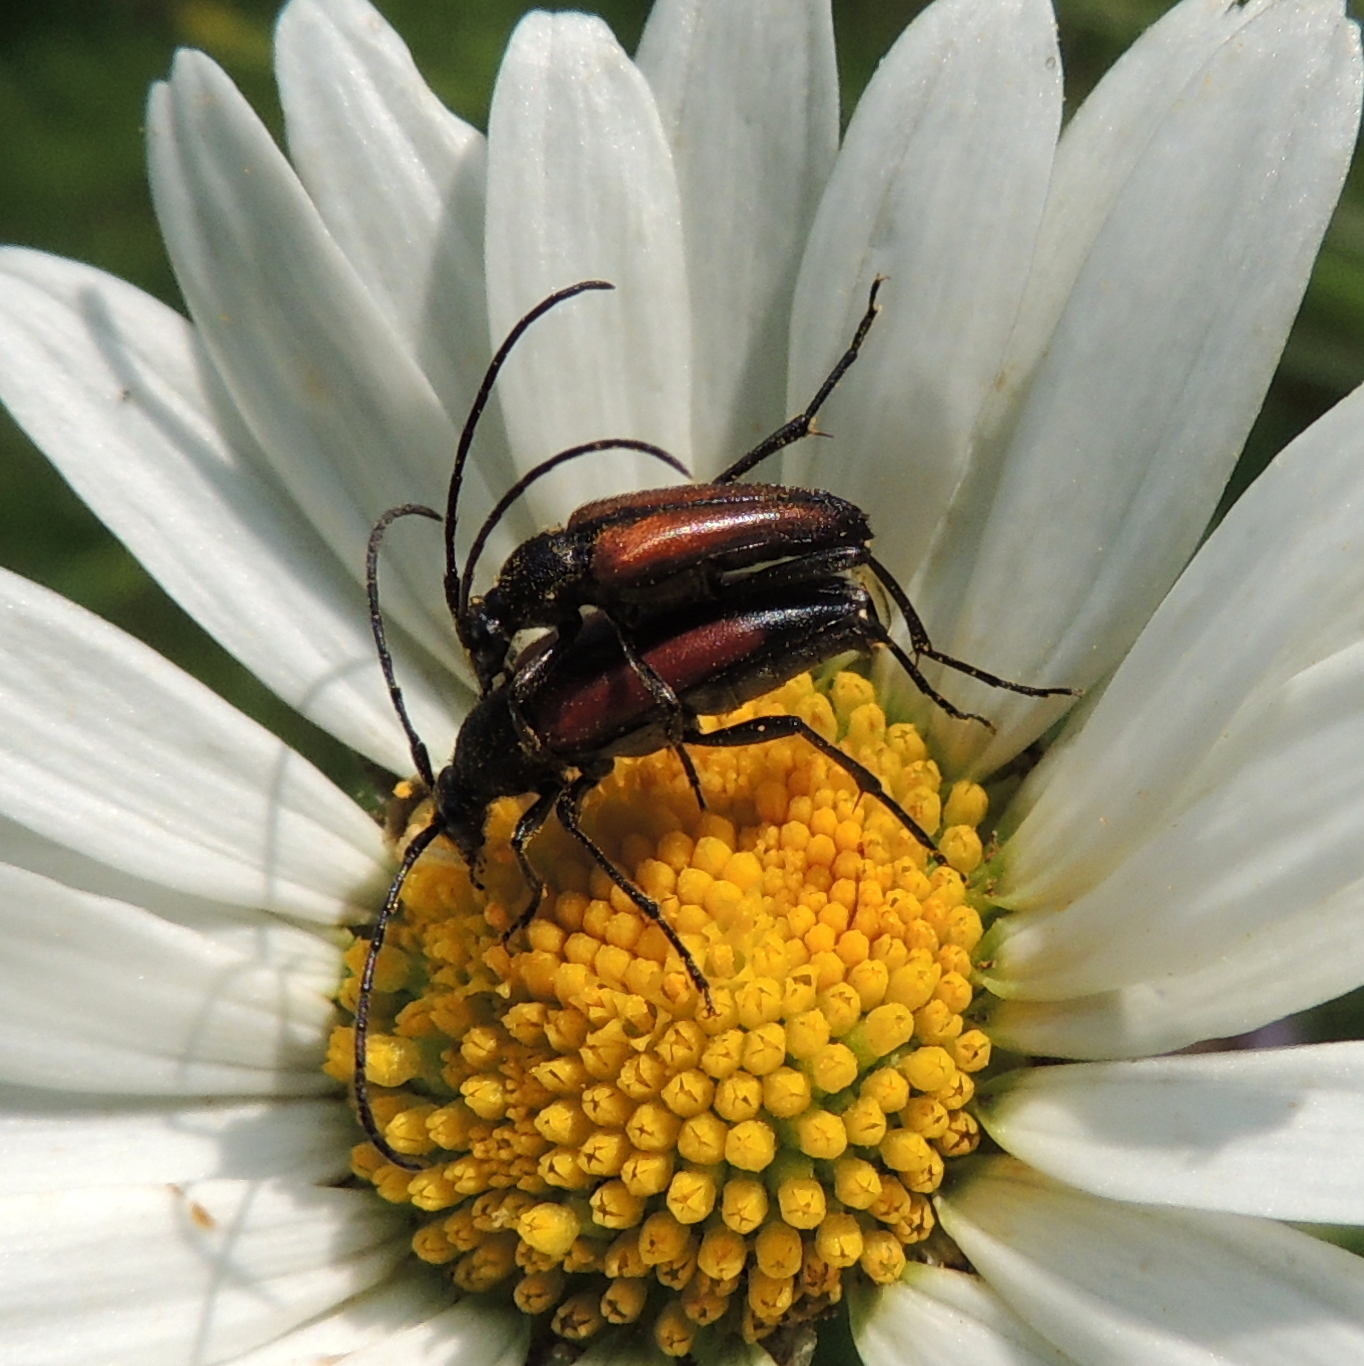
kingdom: Animalia
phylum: Arthropoda
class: Insecta
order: Coleoptera
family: Cerambycidae
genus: Stenurella
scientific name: Stenurella melanura
